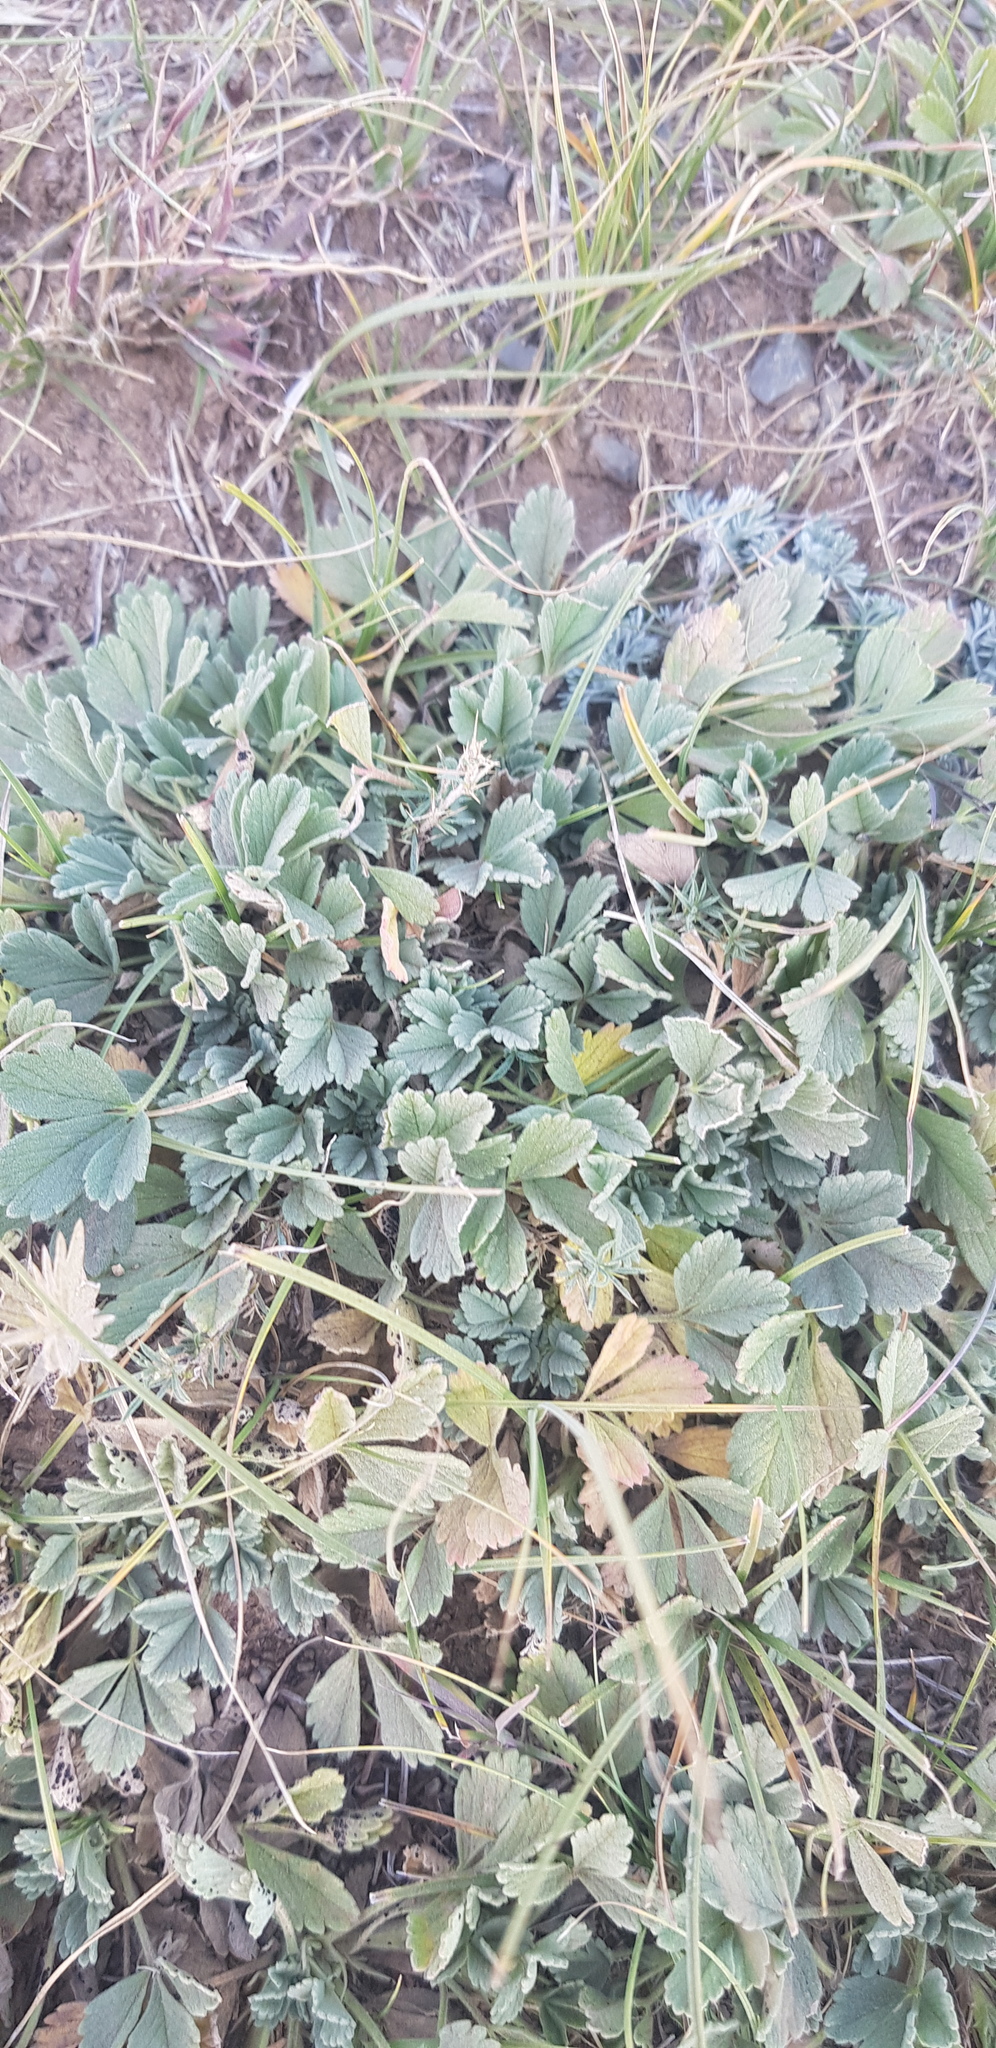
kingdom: Plantae
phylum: Tracheophyta
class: Magnoliopsida
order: Rosales
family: Rosaceae
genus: Potentilla
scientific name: Potentilla acaulis
